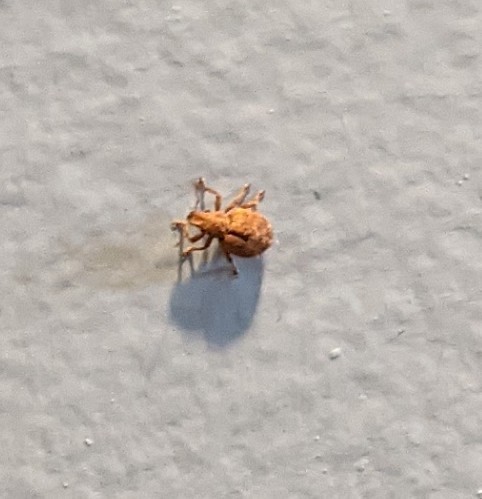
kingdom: Animalia
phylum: Arthropoda
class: Insecta
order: Coleoptera
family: Curculionidae
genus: Strophosoma
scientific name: Strophosoma melanogrammum
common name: Weevil
